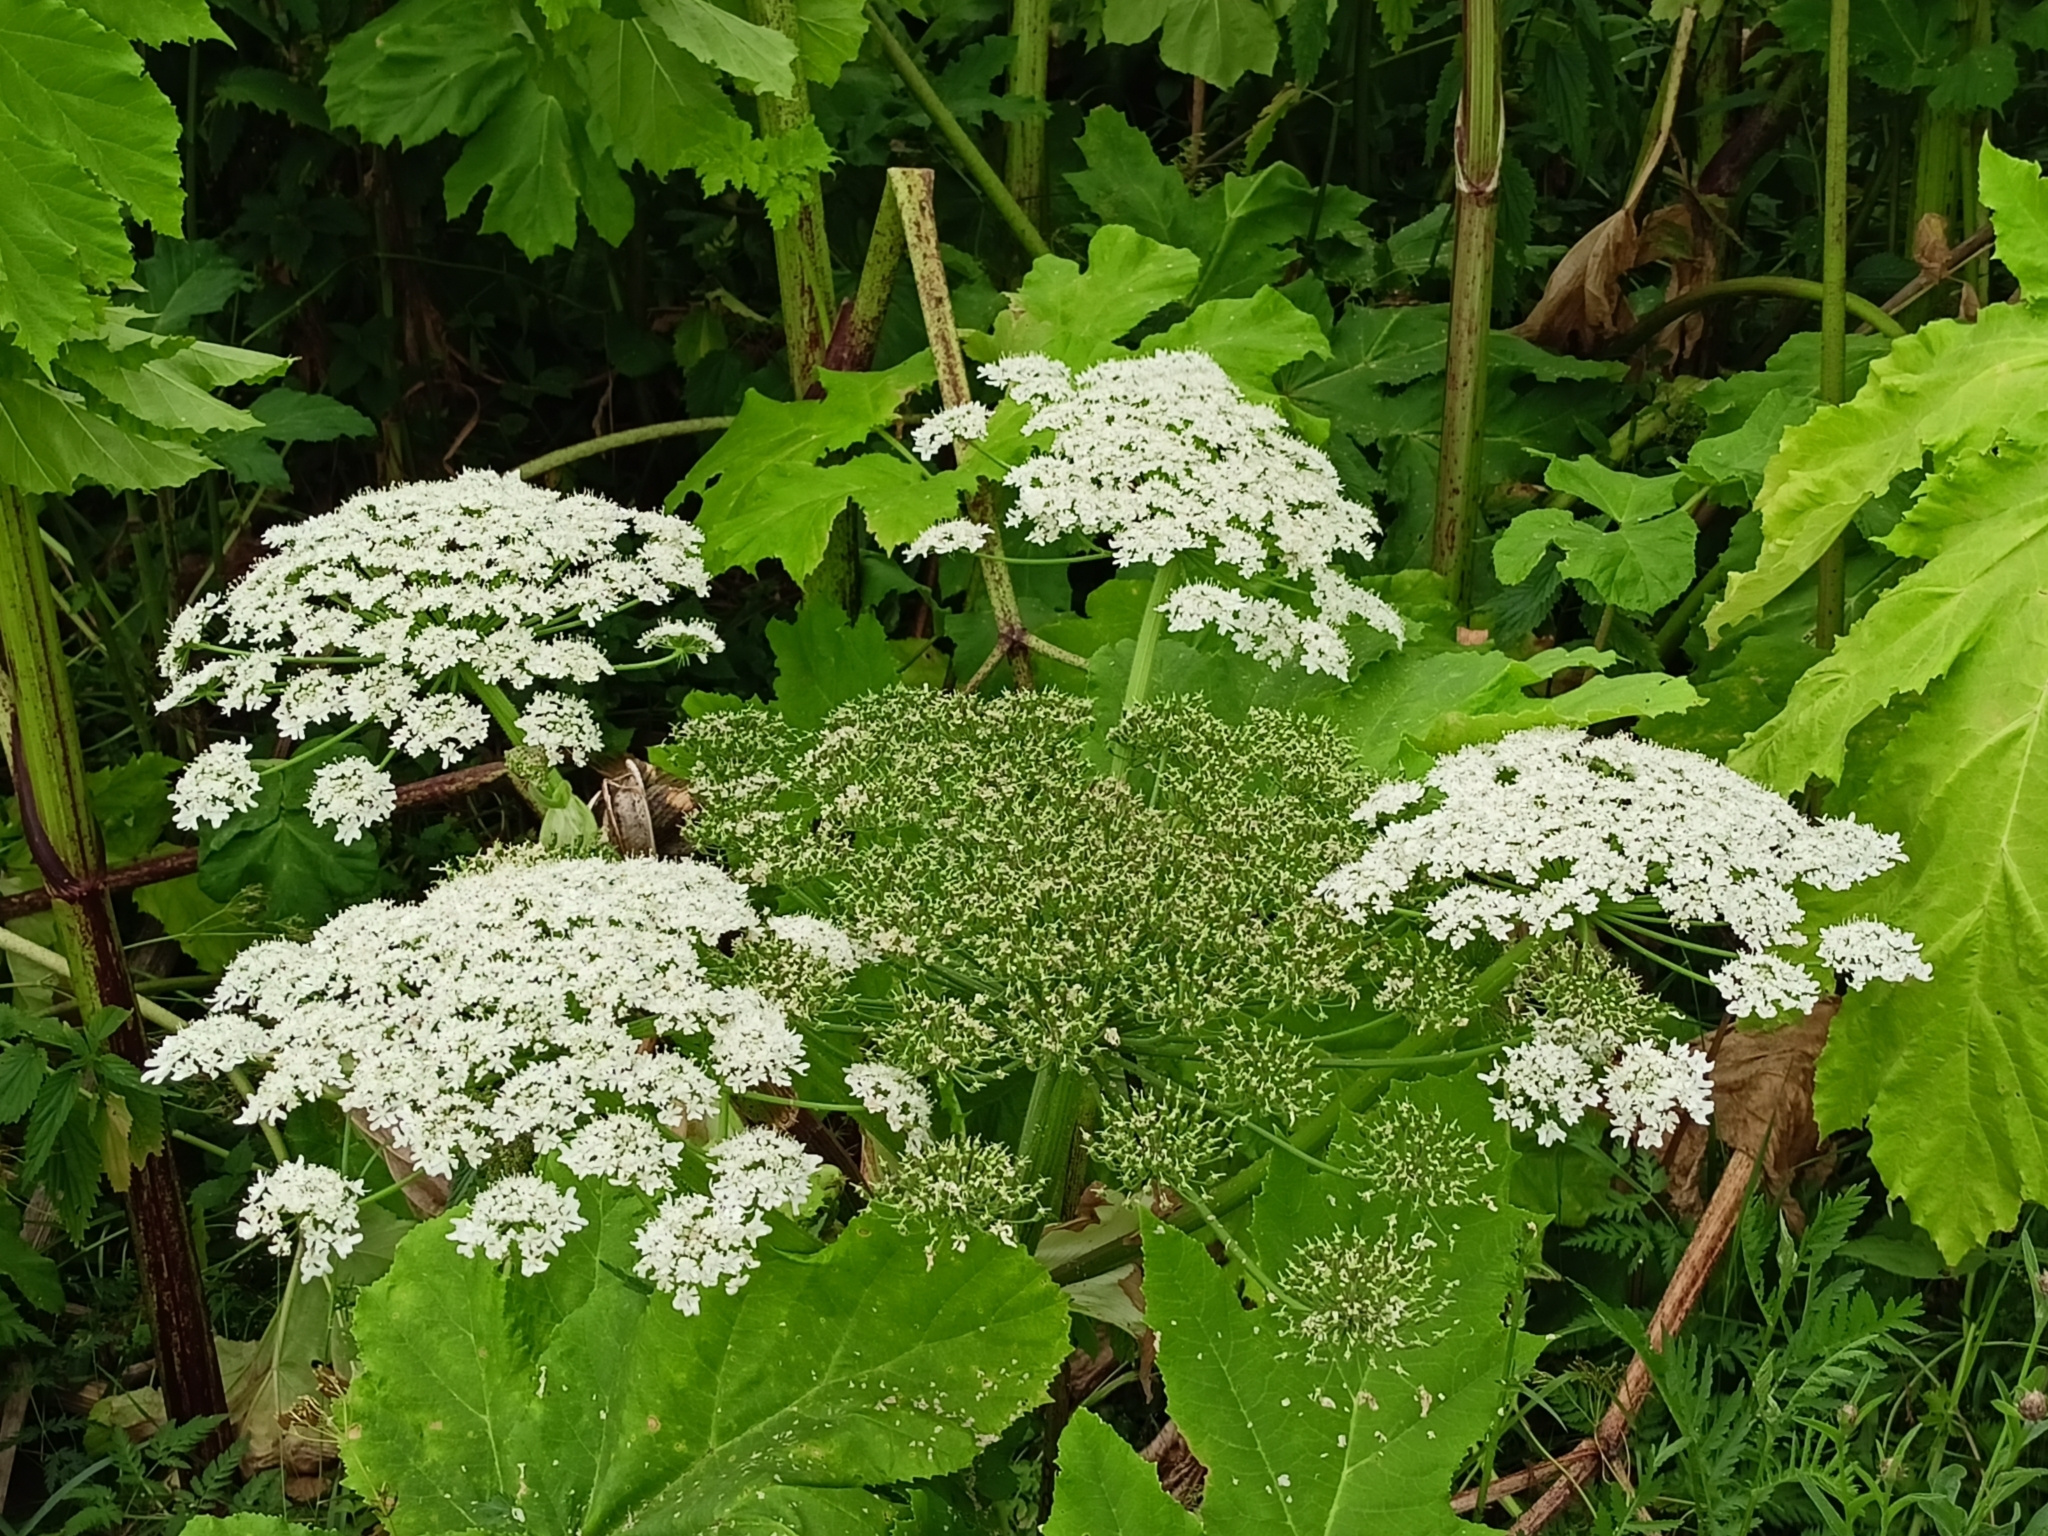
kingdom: Plantae
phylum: Tracheophyta
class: Magnoliopsida
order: Apiales
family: Apiaceae
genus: Heracleum
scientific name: Heracleum sosnowskyi
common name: Sosnowsky's hogweed
